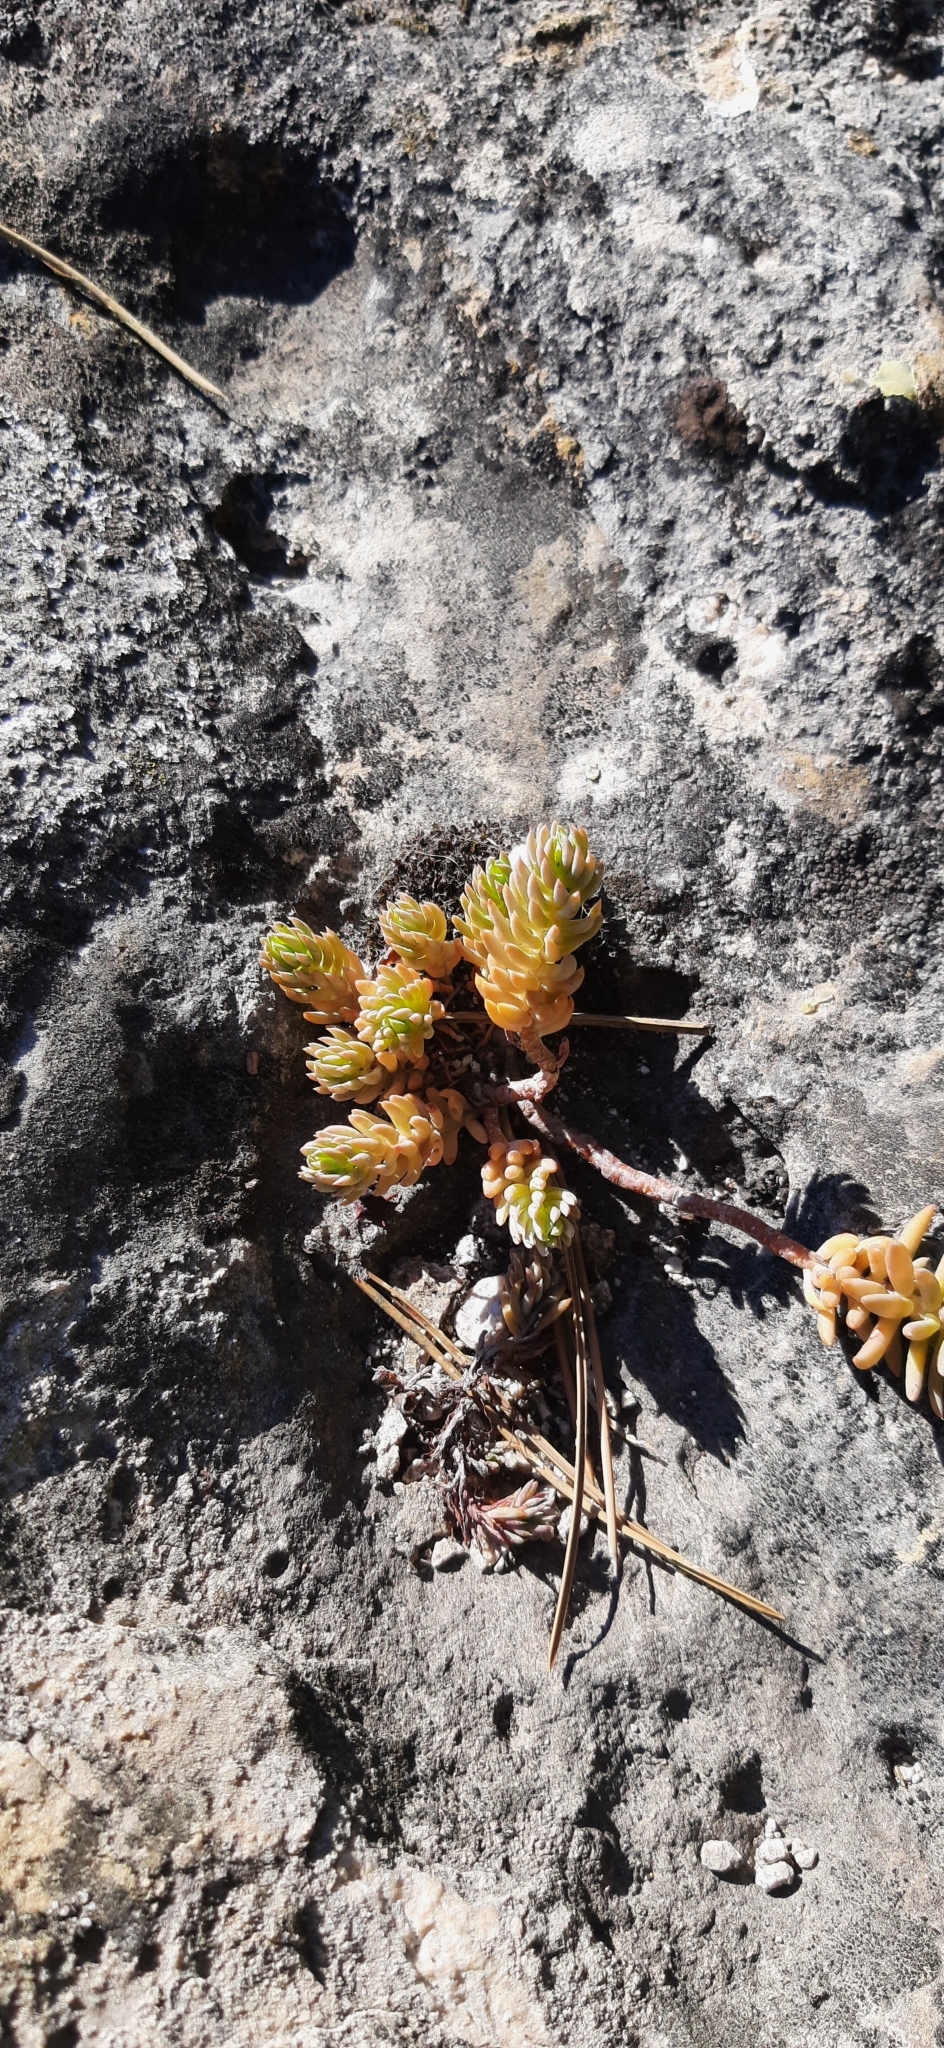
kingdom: Plantae
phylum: Tracheophyta
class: Magnoliopsida
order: Saxifragales
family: Crassulaceae
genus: Petrosedum
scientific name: Petrosedum orientale
